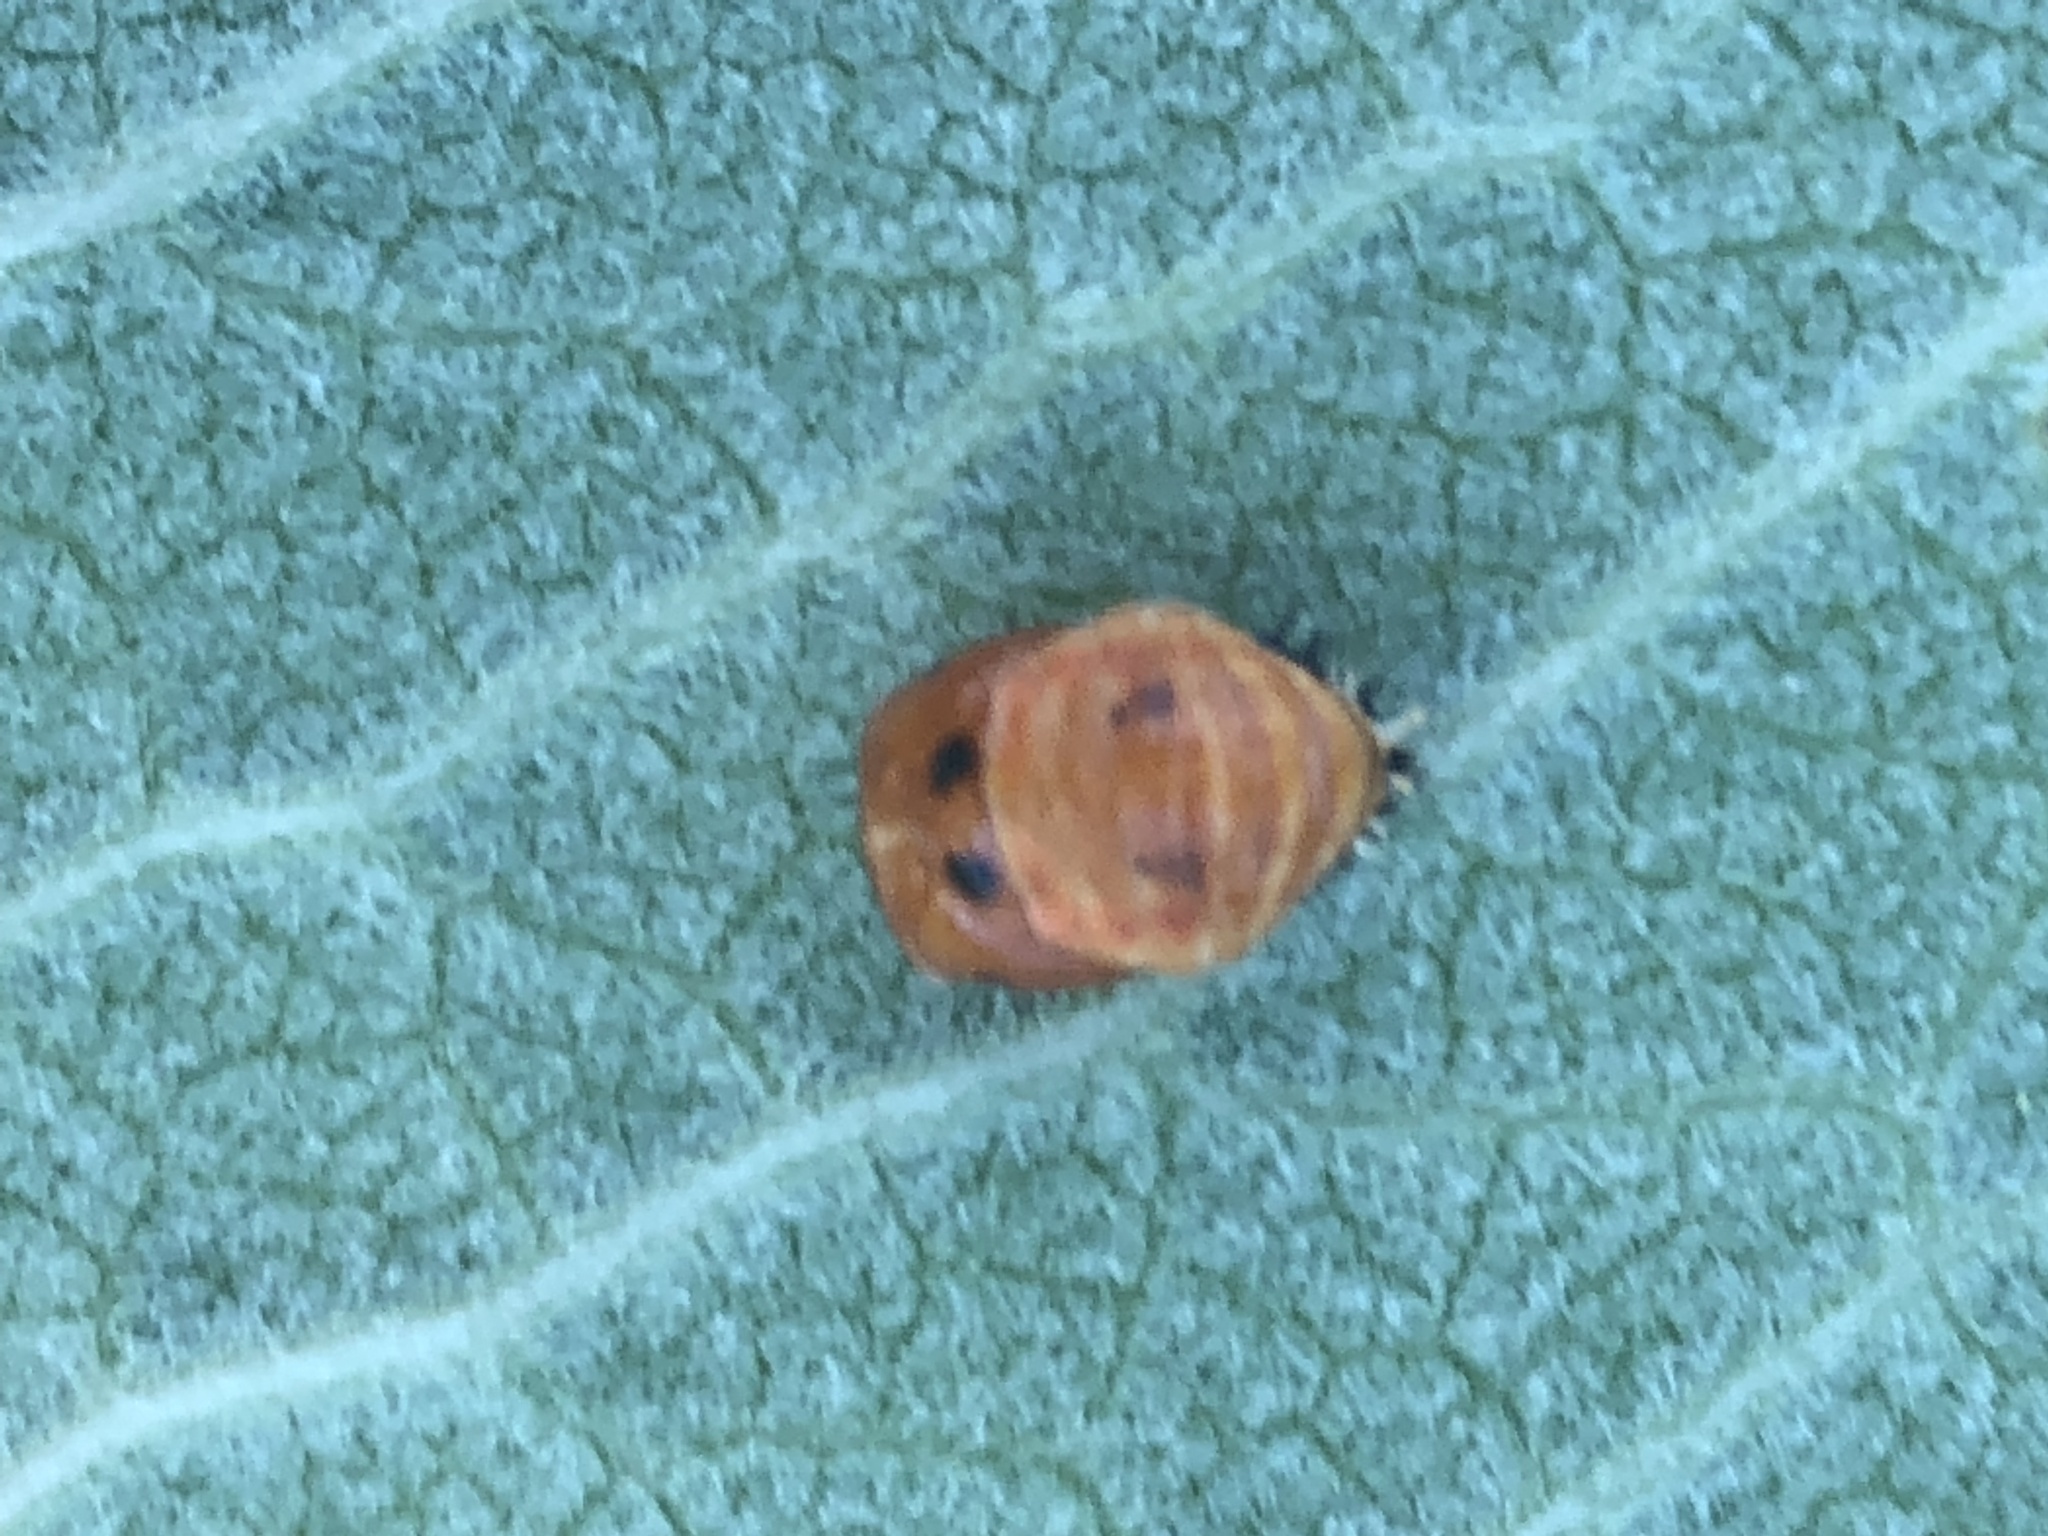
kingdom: Animalia
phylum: Arthropoda
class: Insecta
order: Coleoptera
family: Coccinellidae
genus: Harmonia
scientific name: Harmonia axyridis
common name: Harlequin ladybird
